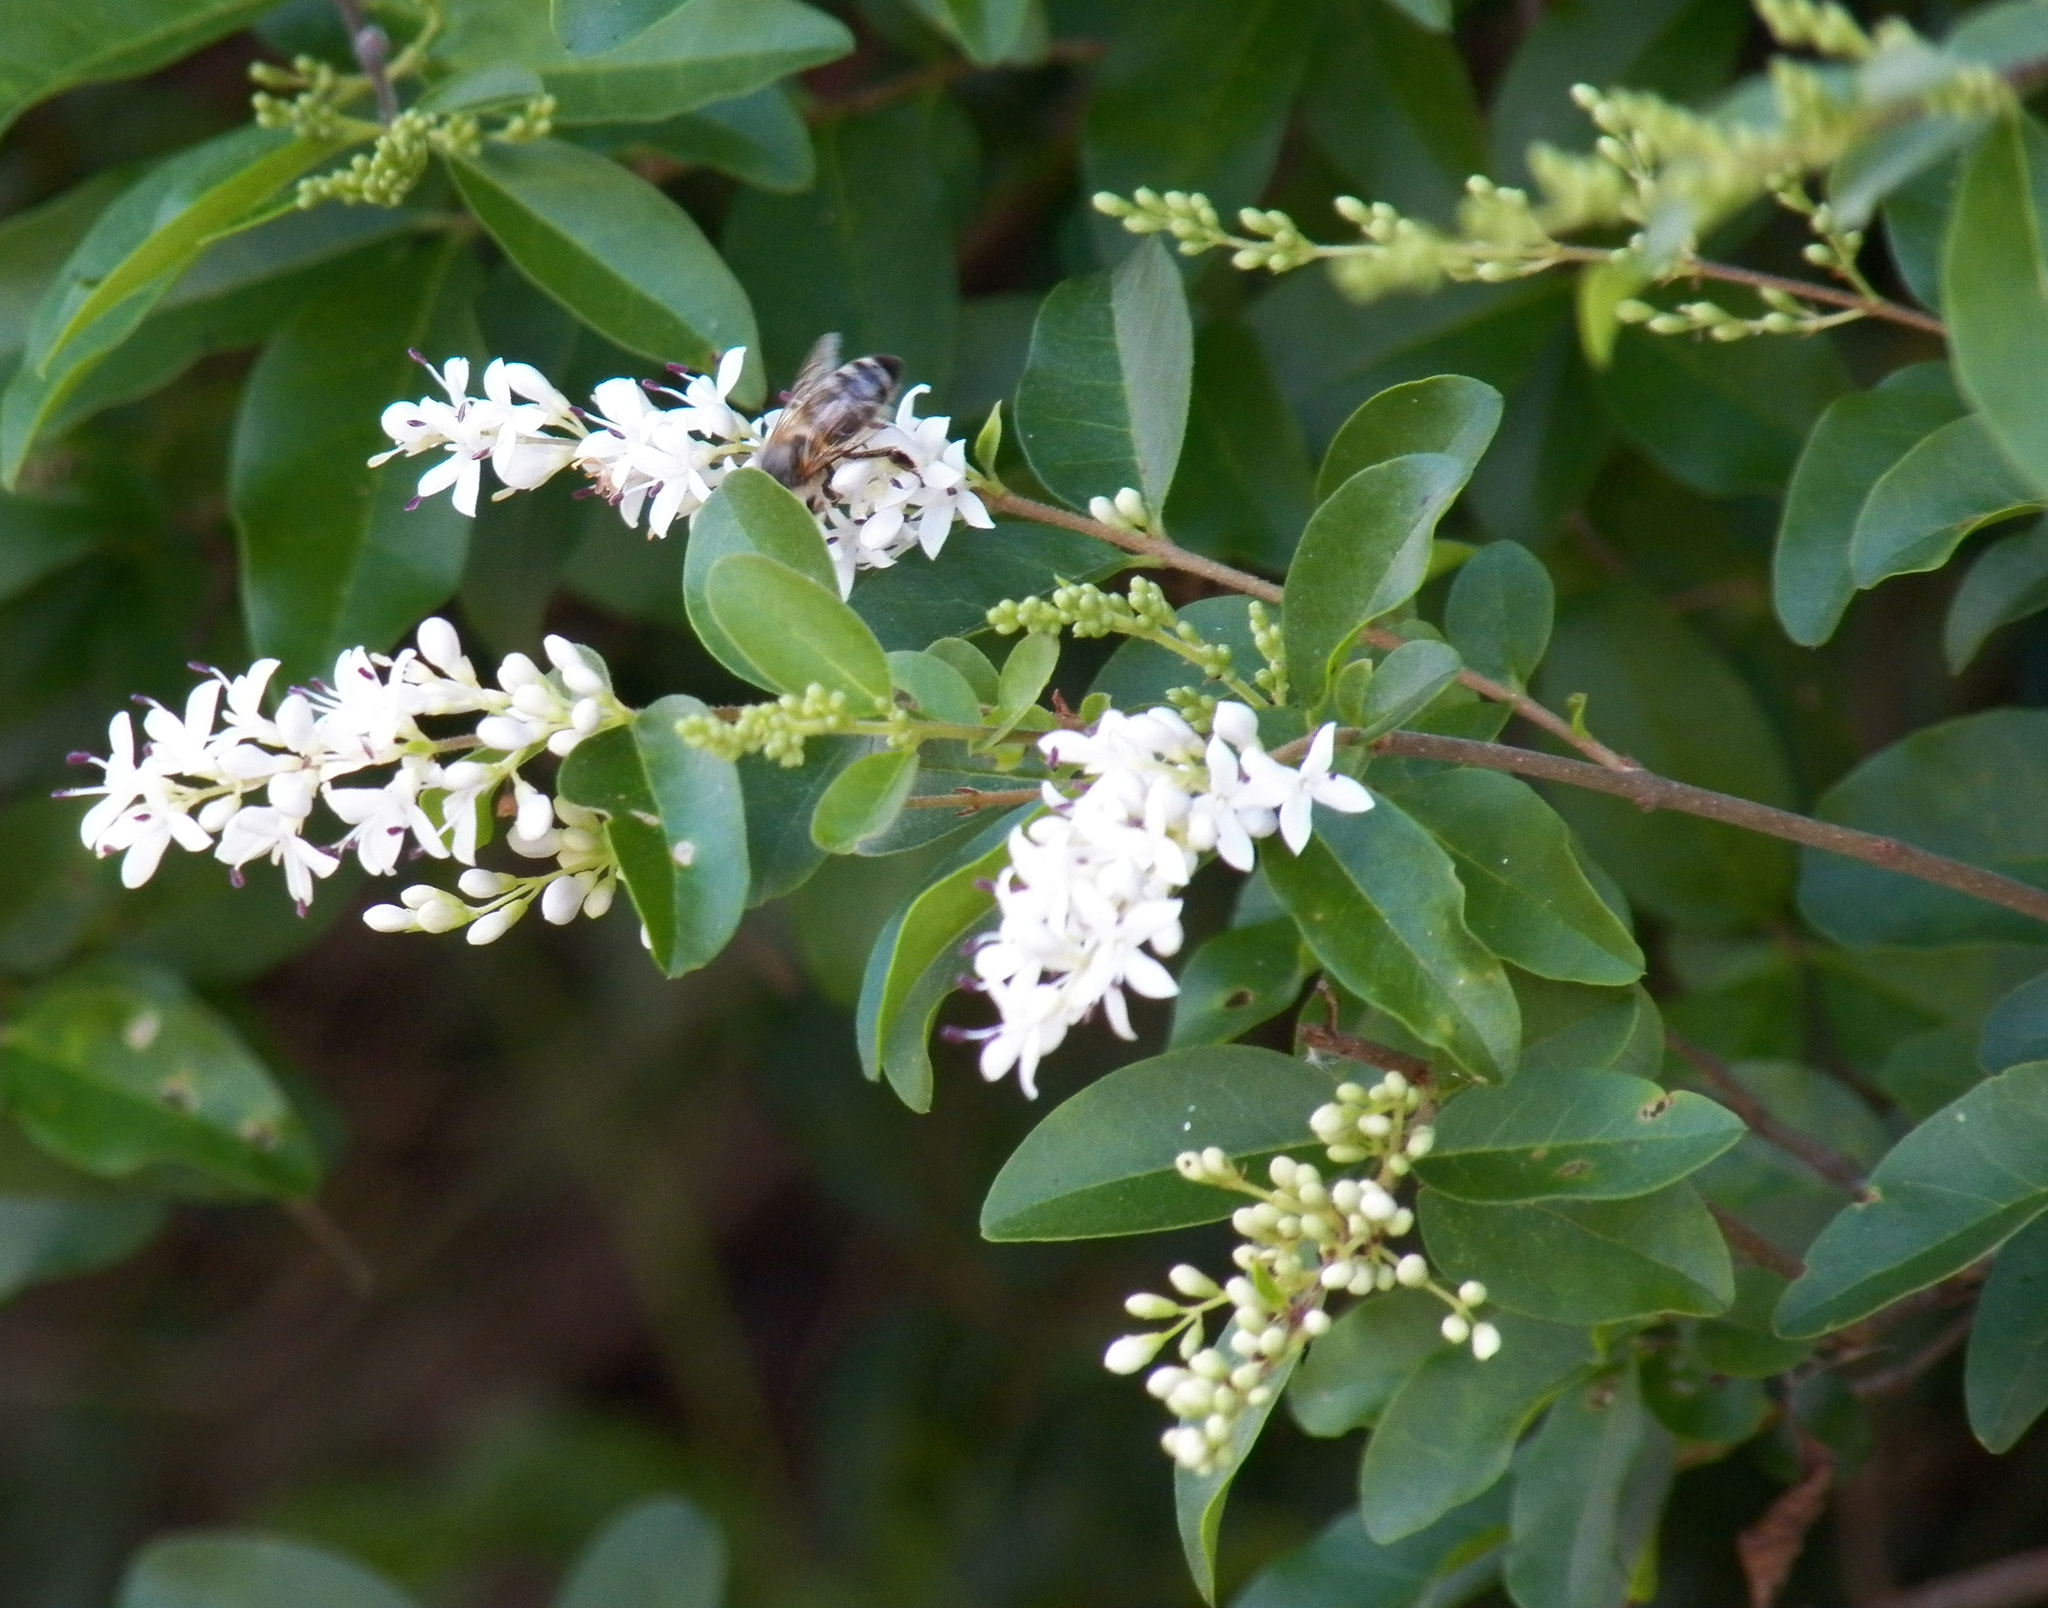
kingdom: Plantae
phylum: Tracheophyta
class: Magnoliopsida
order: Lamiales
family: Oleaceae
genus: Ligustrum
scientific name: Ligustrum sinense
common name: Chinese privet
